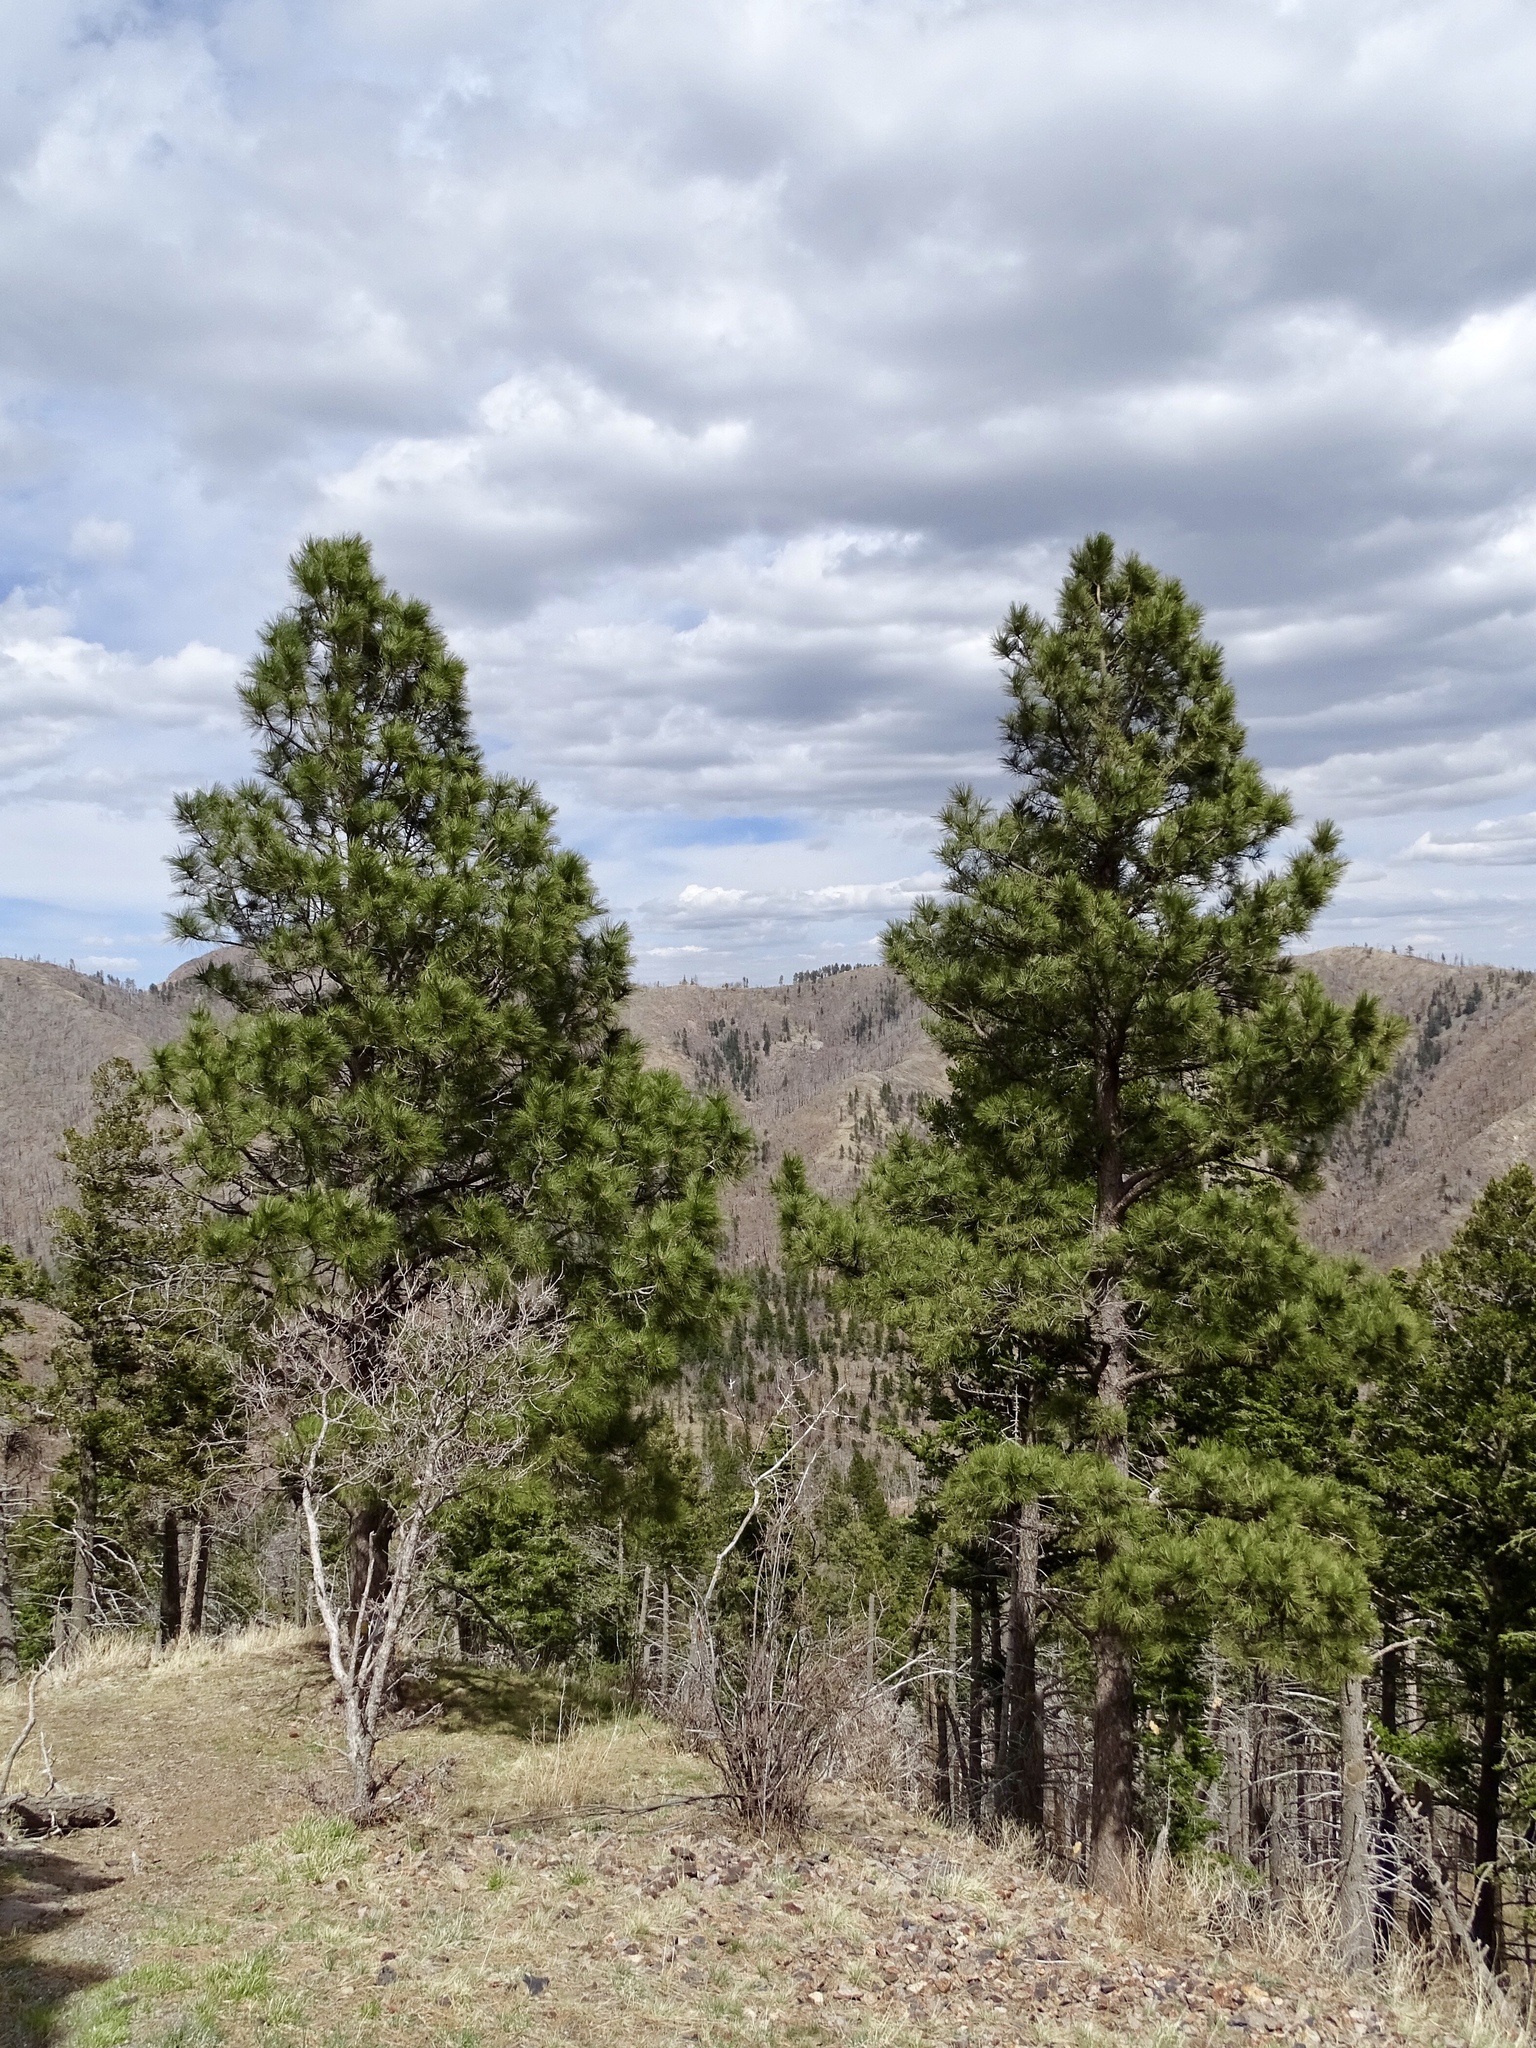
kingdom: Plantae
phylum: Tracheophyta
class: Pinopsida
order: Pinales
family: Pinaceae
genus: Pinus
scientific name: Pinus ponderosa
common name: Western yellow-pine
